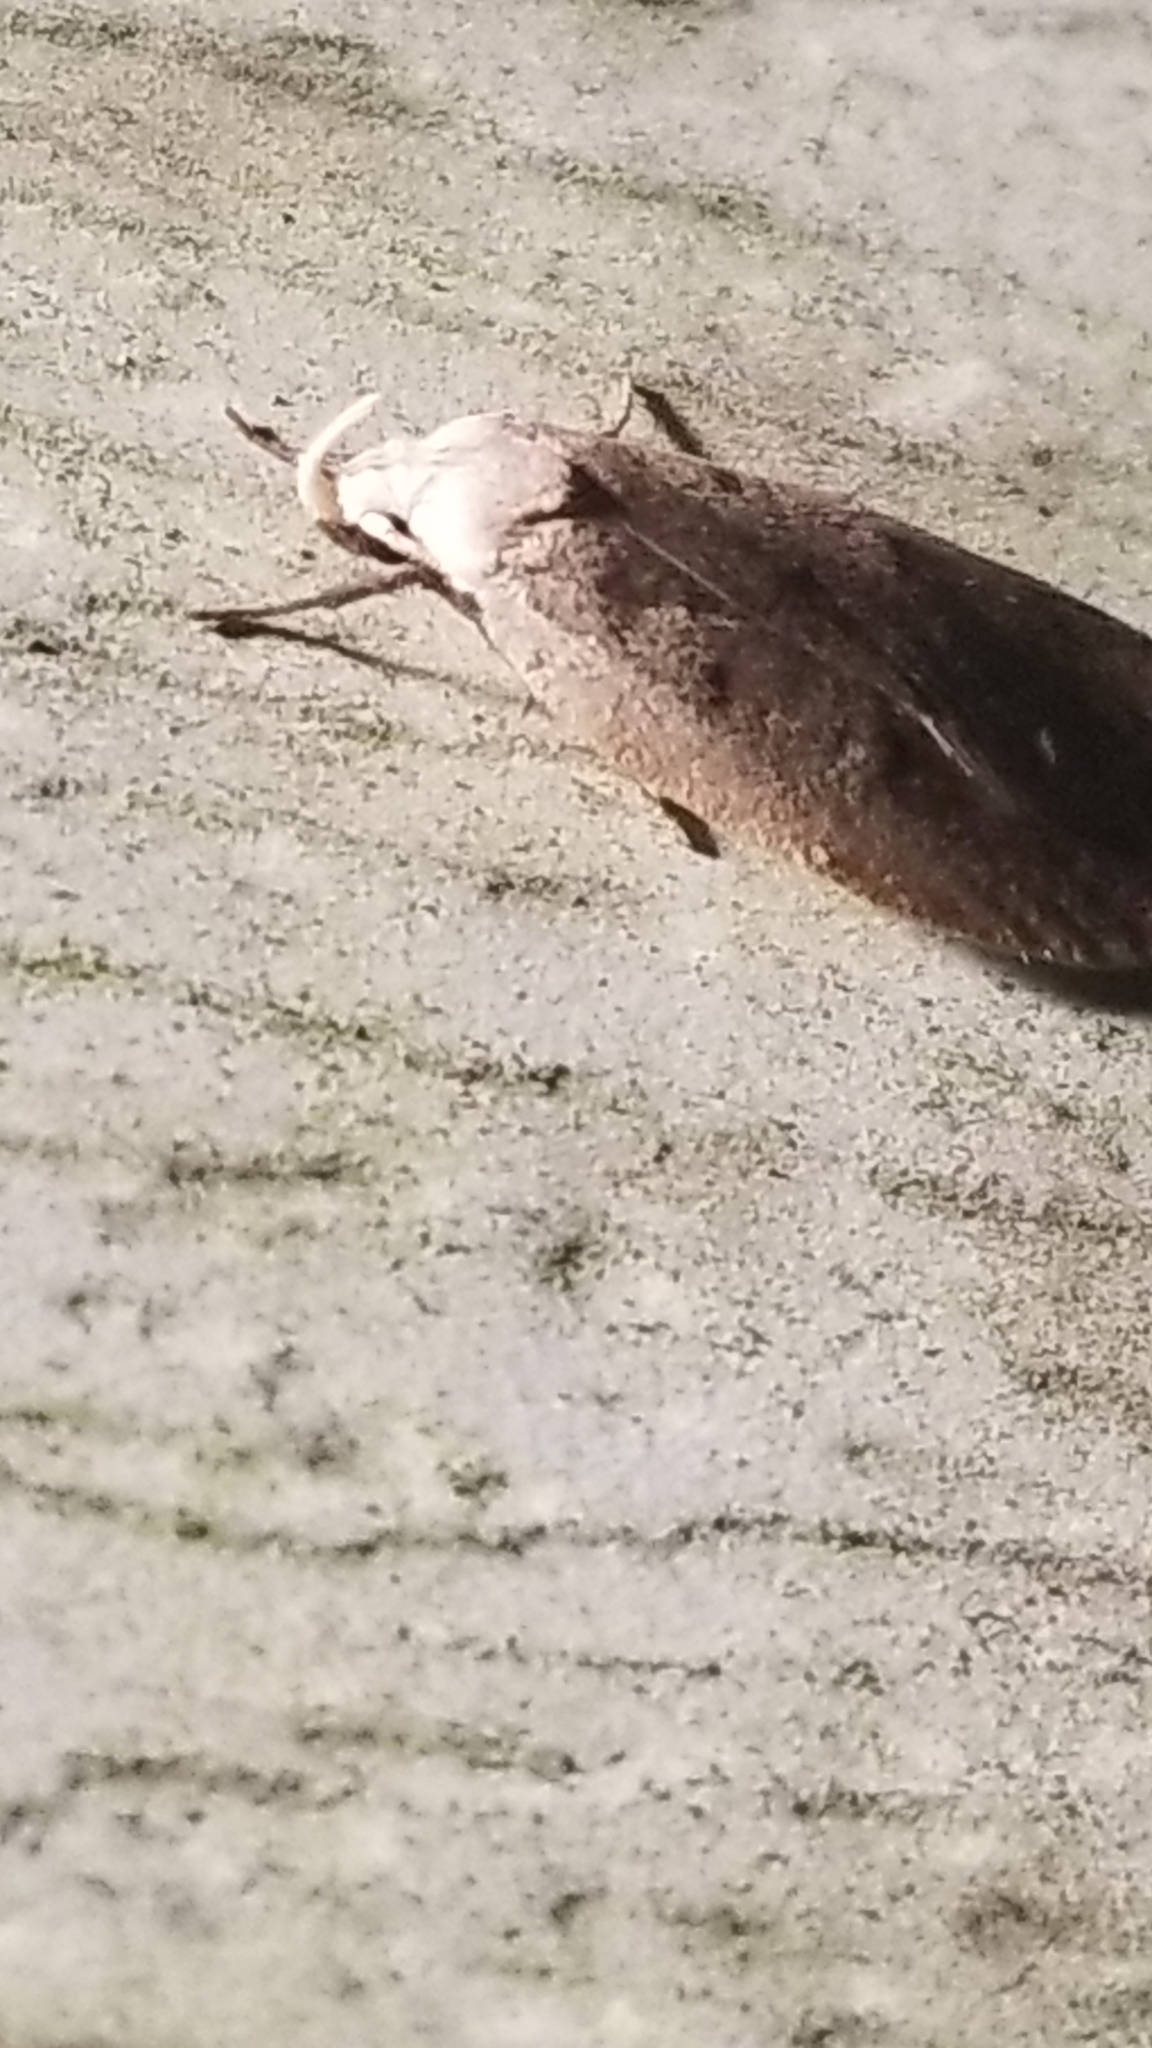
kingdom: Animalia
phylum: Arthropoda
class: Insecta
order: Lepidoptera
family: Peleopodidae
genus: Machimia
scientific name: Machimia tentoriferella
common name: Gold-striped leaftier moth
